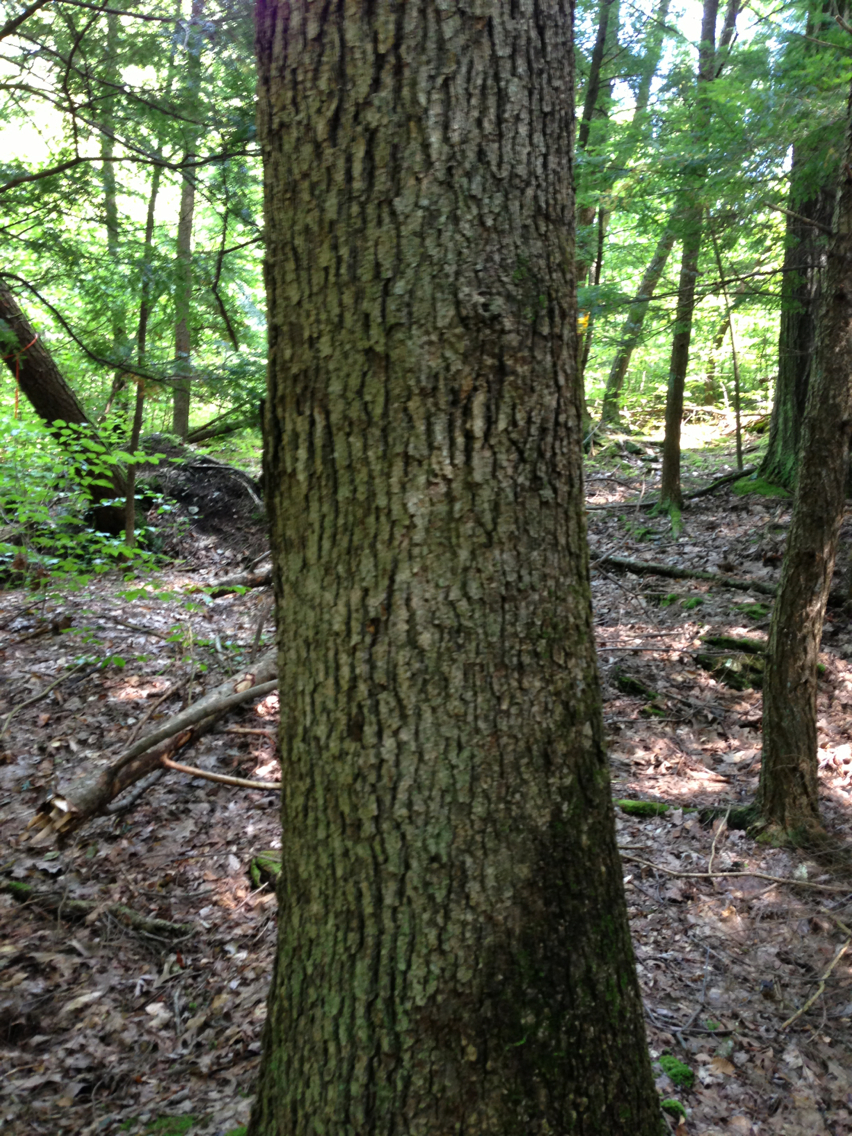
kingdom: Plantae
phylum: Tracheophyta
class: Magnoliopsida
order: Fagales
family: Fagaceae
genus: Quercus
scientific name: Quercus alba
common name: White oak
